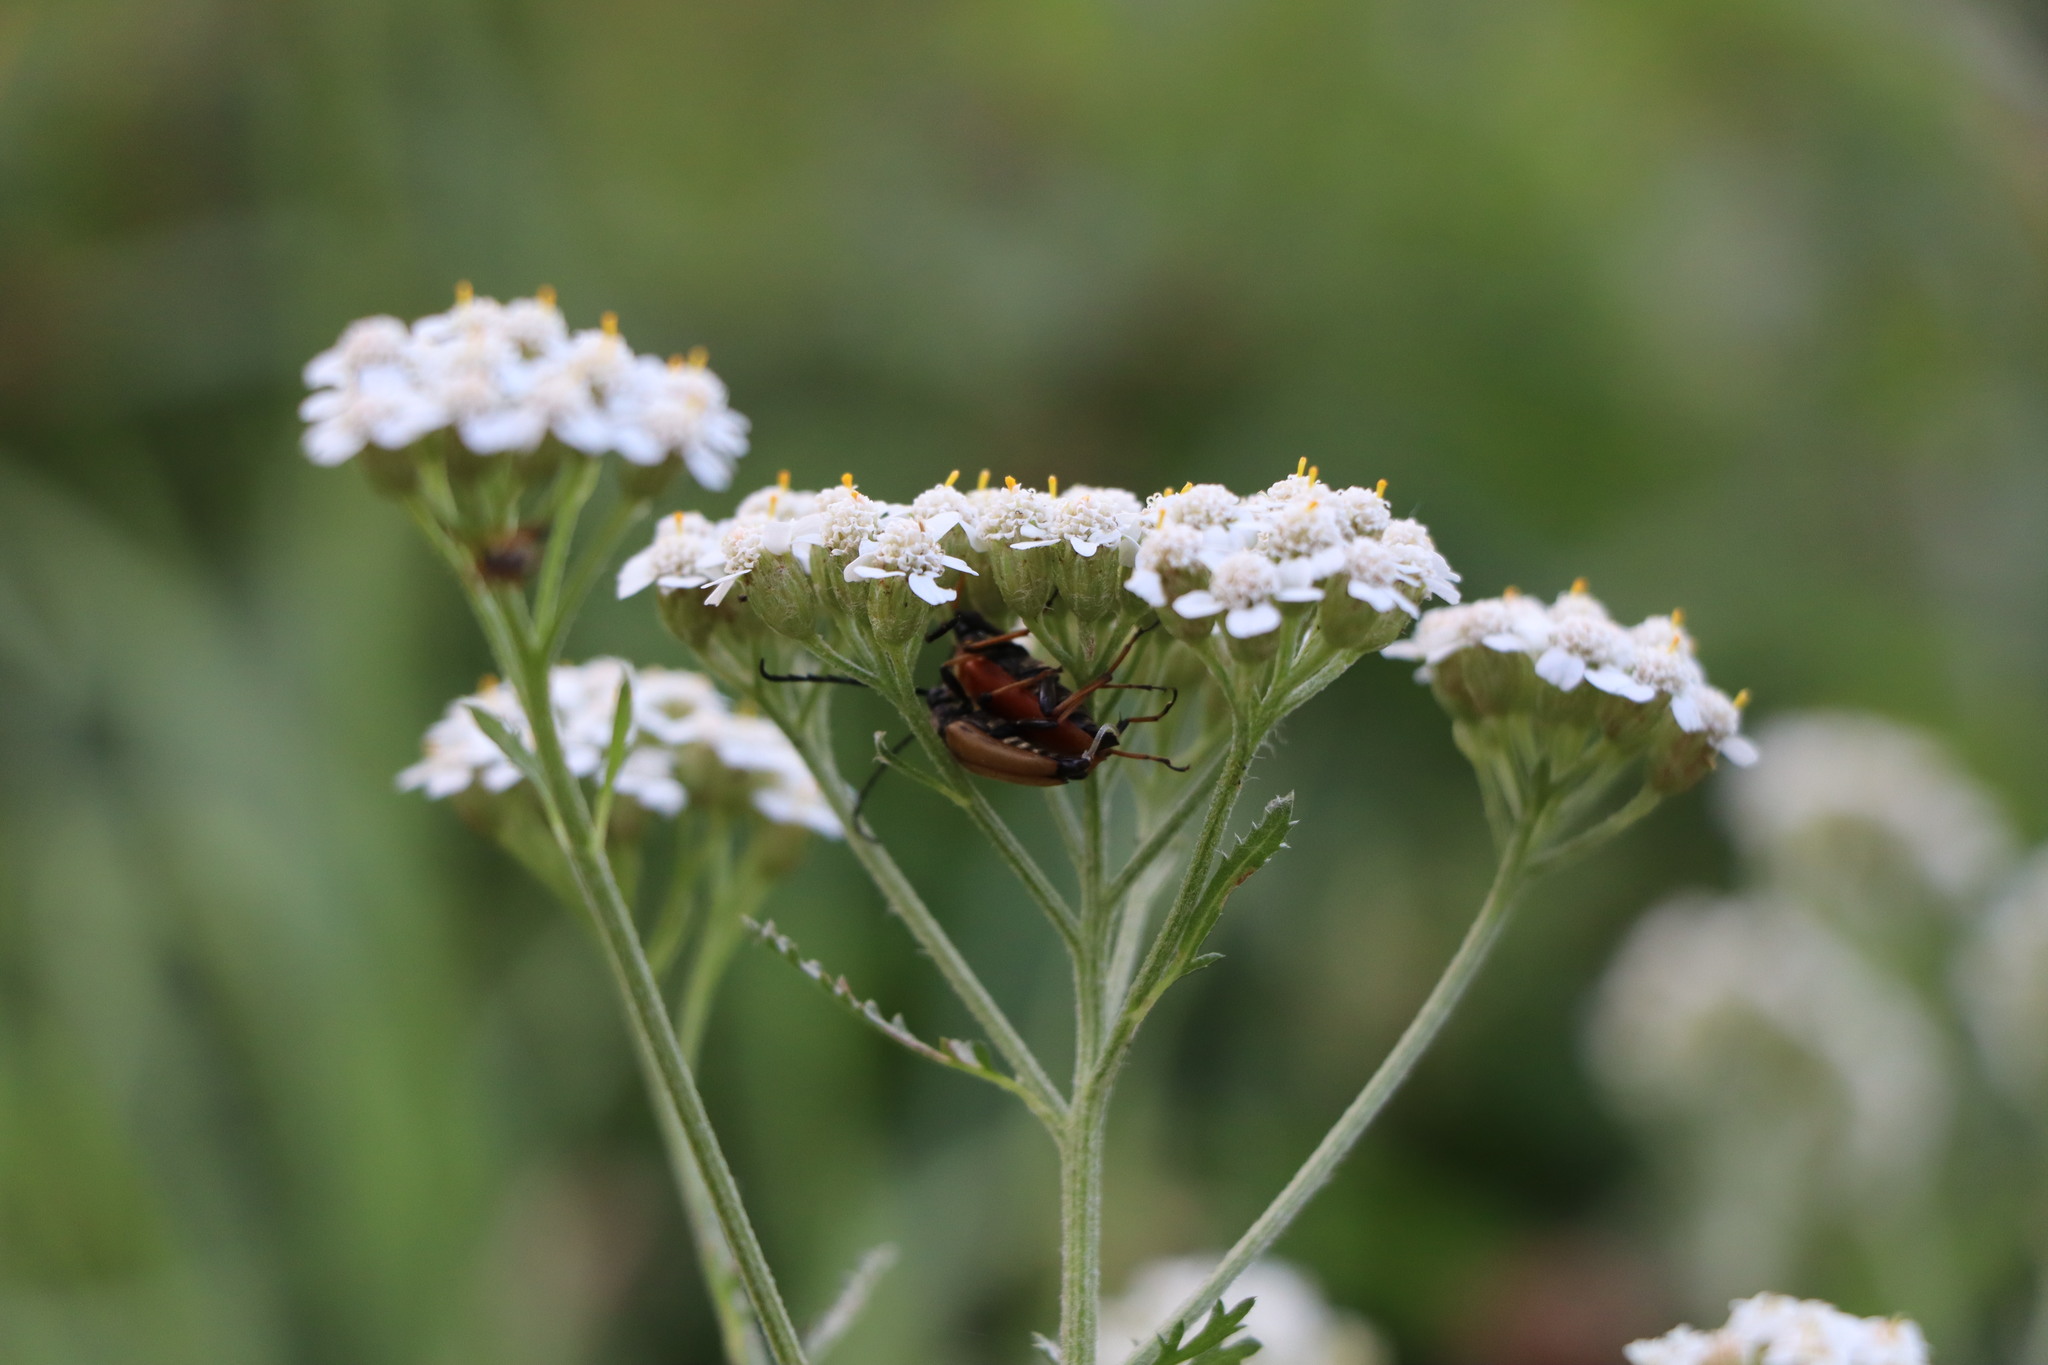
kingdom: Animalia
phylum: Arthropoda
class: Insecta
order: Coleoptera
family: Cerambycidae
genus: Stictoleptura
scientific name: Stictoleptura rubra
